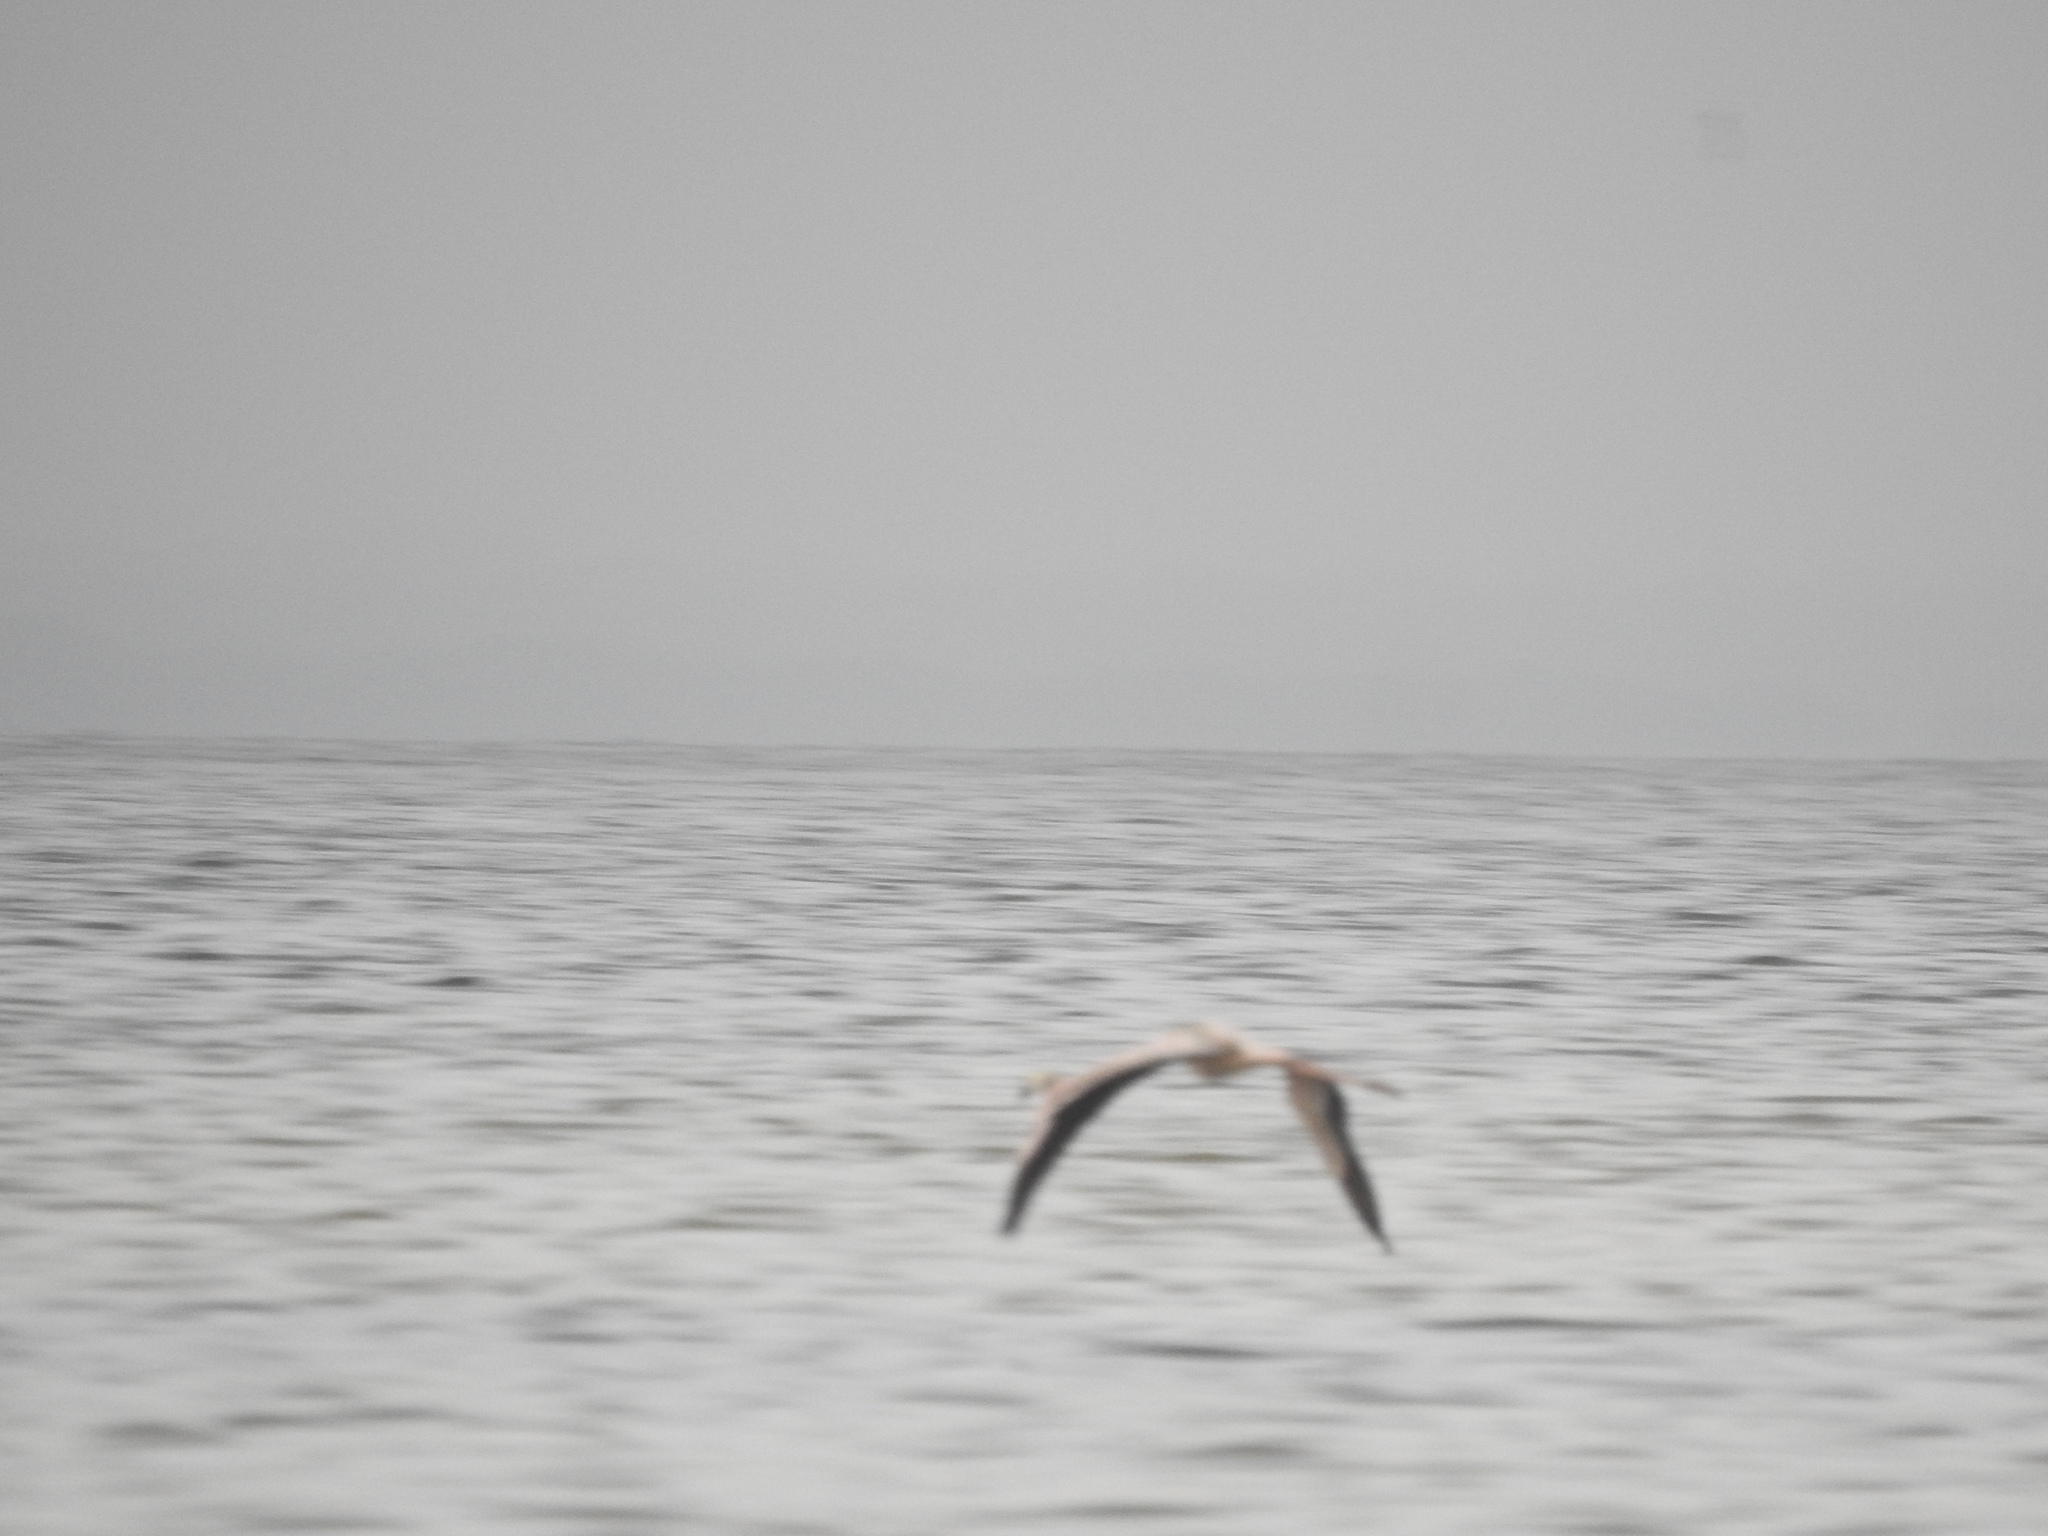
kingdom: Animalia
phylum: Chordata
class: Aves
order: Phoenicopteriformes
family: Phoenicopteridae
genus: Phoenicopterus
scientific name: Phoenicopterus ruber
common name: American flamingo
